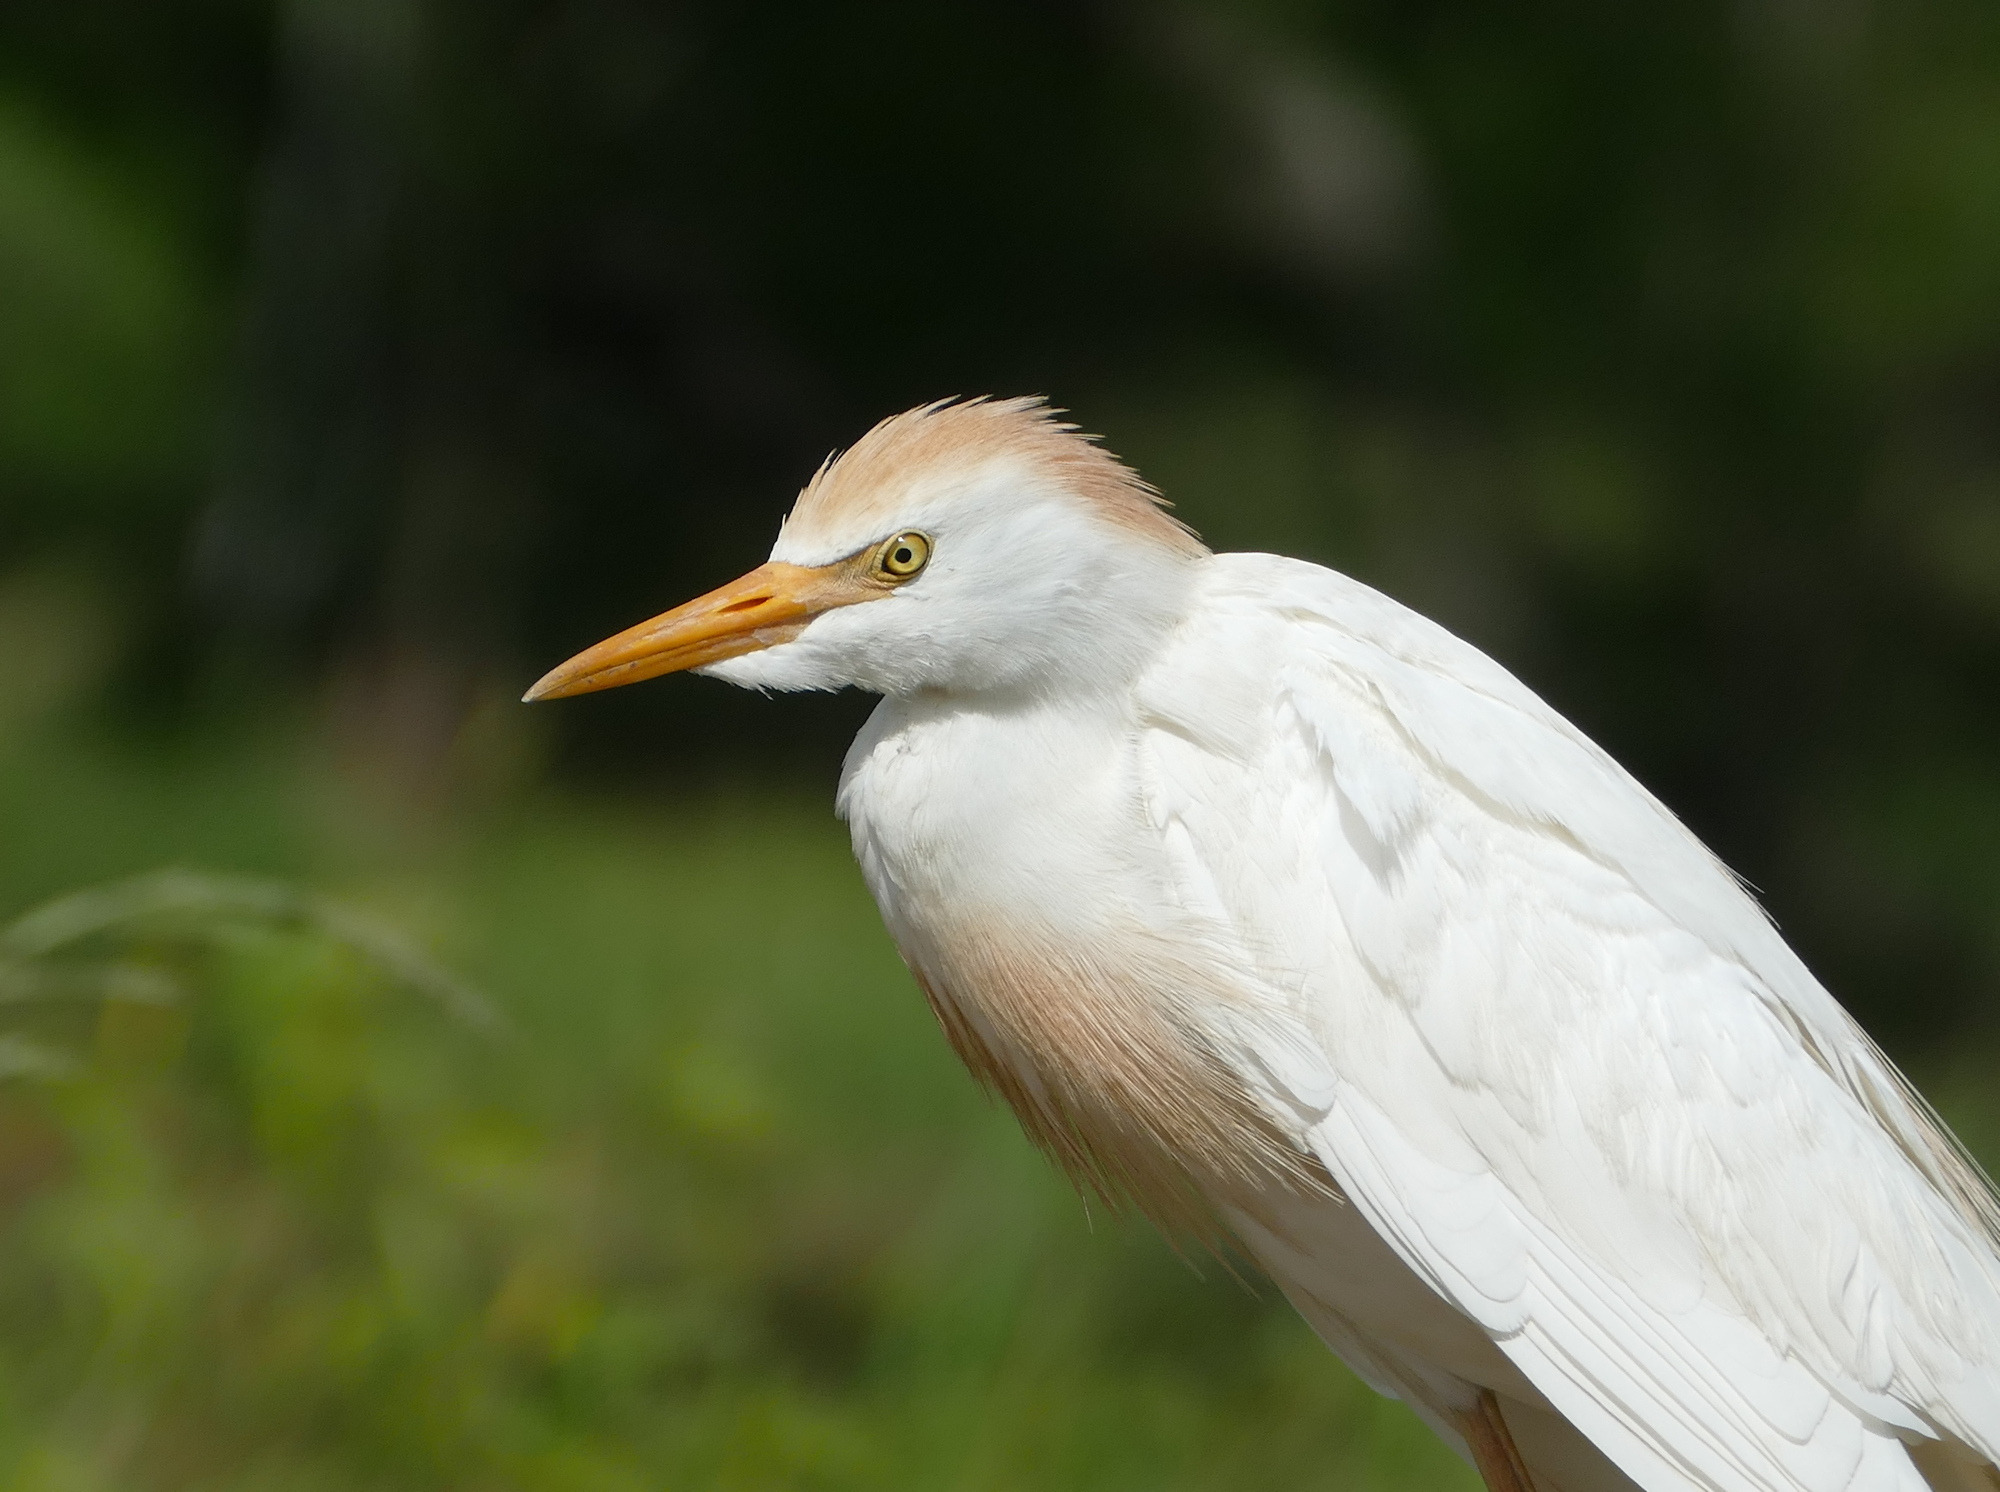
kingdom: Animalia
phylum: Chordata
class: Aves
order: Pelecaniformes
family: Ardeidae
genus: Bubulcus
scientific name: Bubulcus ibis
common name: Cattle egret
